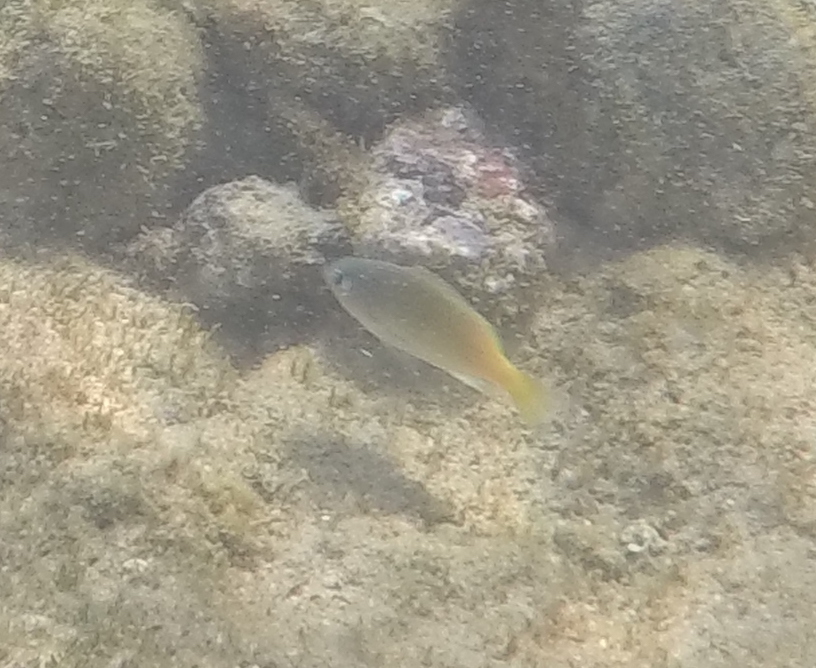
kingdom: Animalia
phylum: Chordata
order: Perciformes
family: Pomacentridae
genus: Plectroglyphidodon
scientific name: Plectroglyphidodon imparipennis
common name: Brighteye damsel
